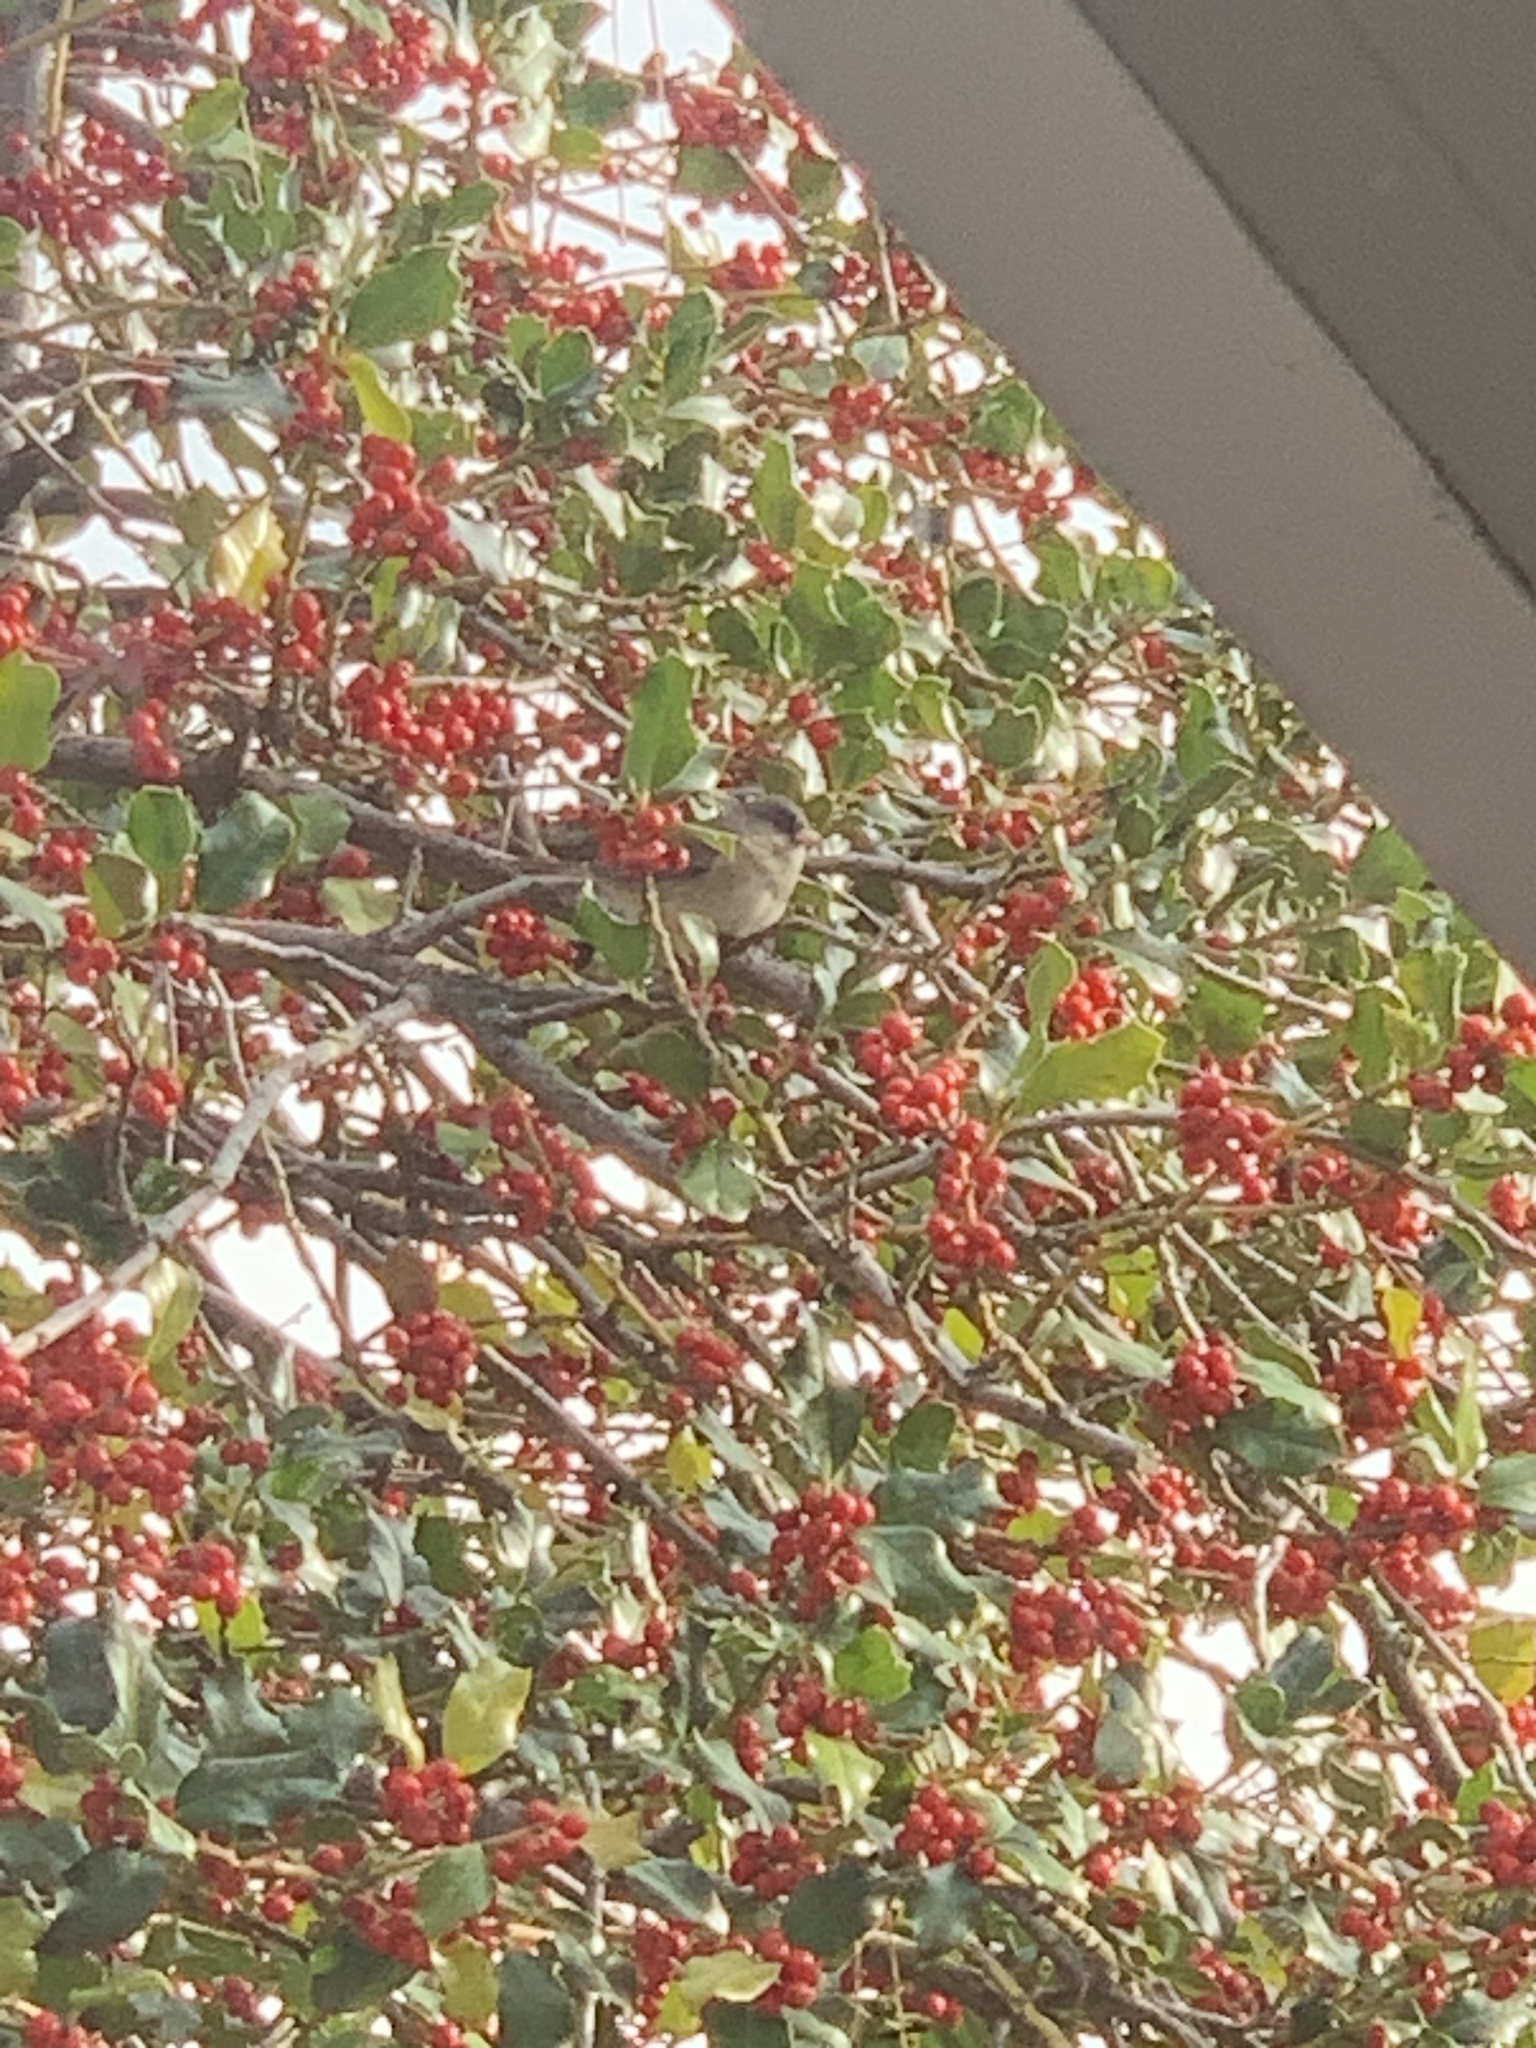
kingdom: Animalia
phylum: Chordata
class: Aves
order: Passeriformes
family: Passerellidae
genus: Junco
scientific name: Junco hyemalis
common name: Dark-eyed junco
